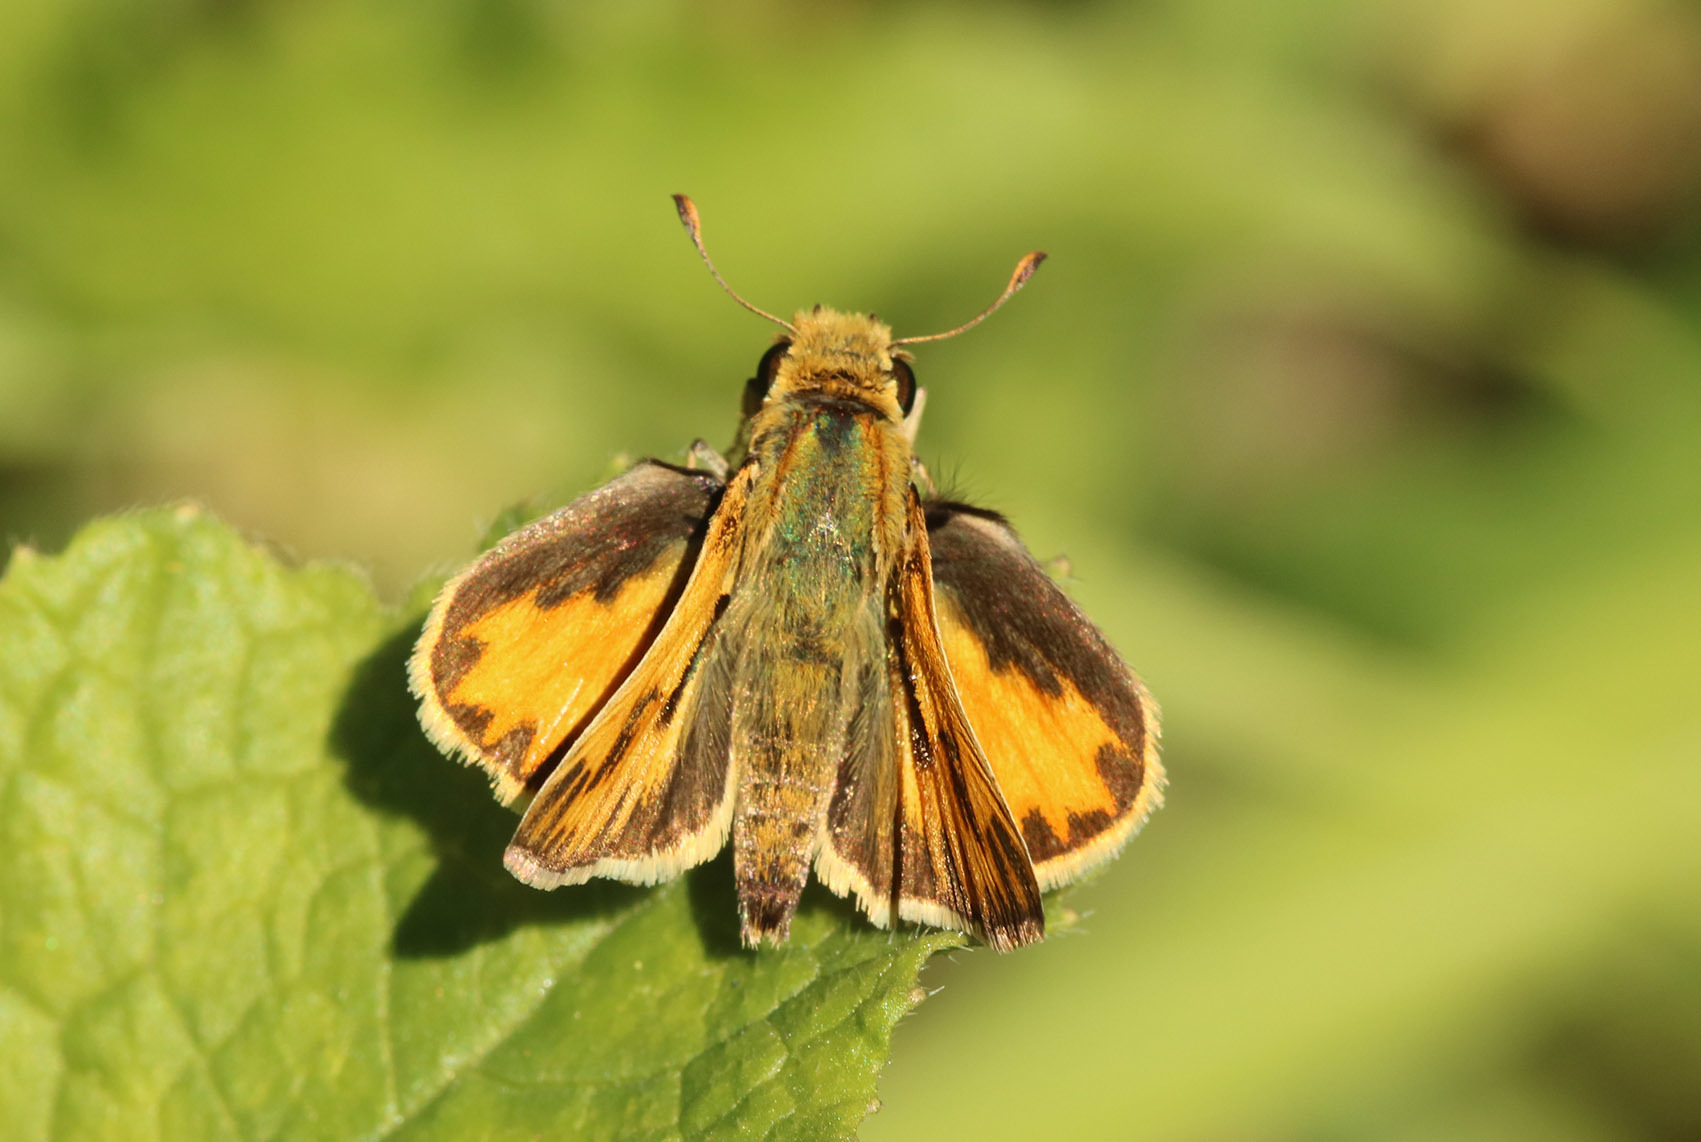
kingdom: Animalia
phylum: Arthropoda
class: Insecta
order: Lepidoptera
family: Hesperiidae
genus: Hylephila
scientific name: Hylephila phyleus
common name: Fiery skipper
